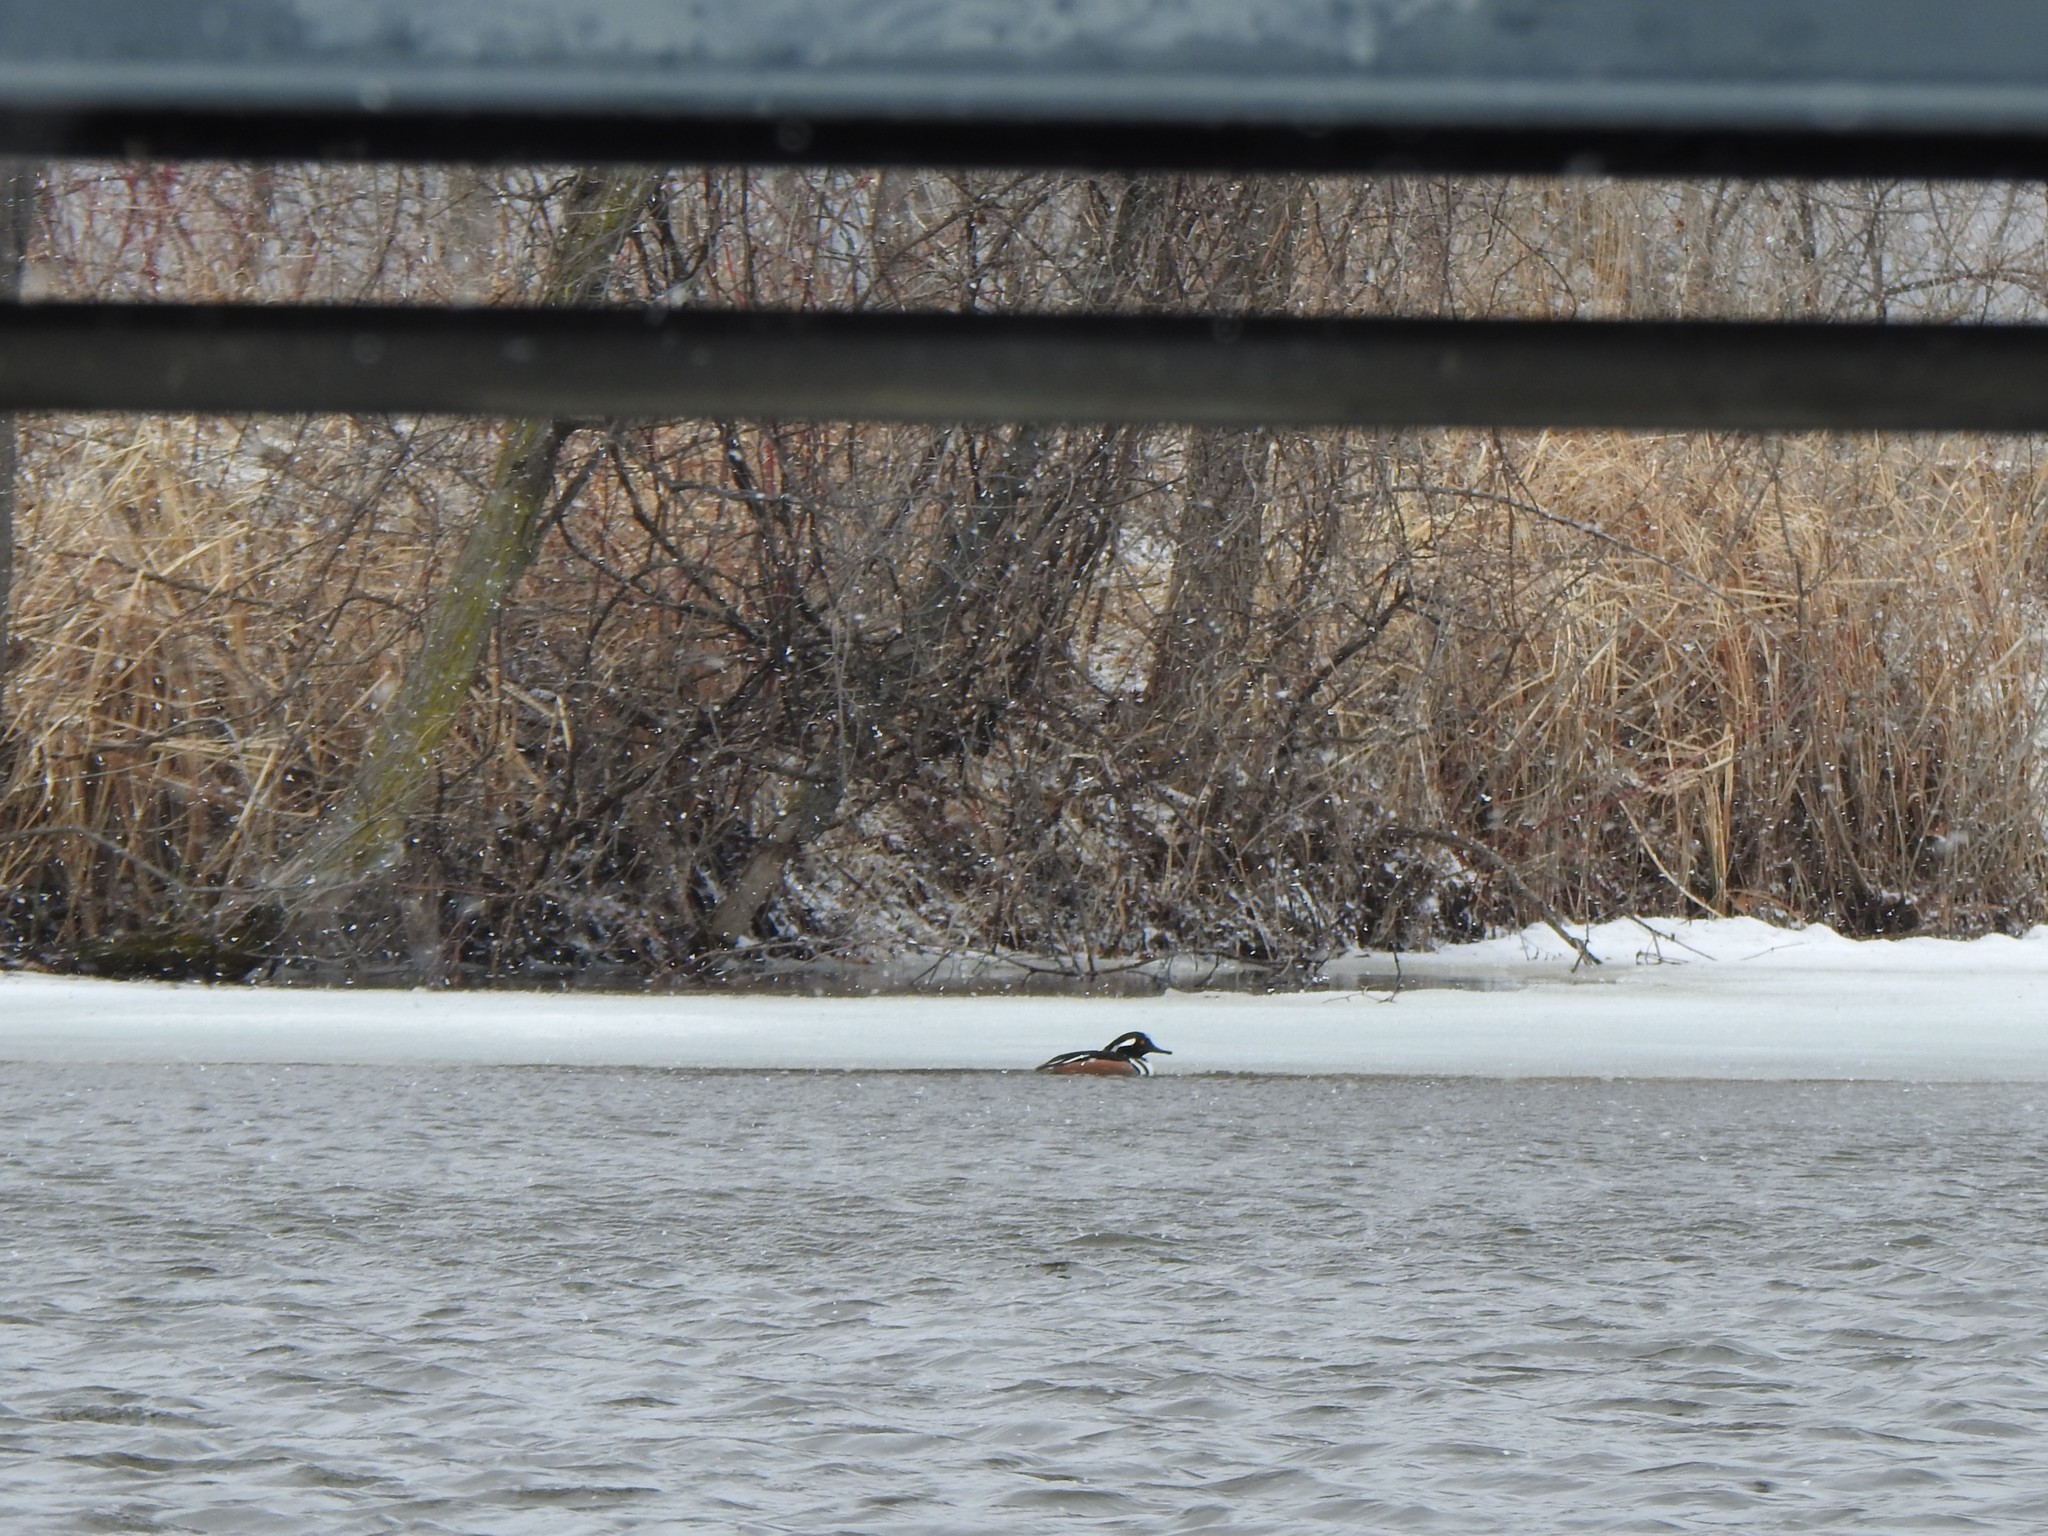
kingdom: Animalia
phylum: Chordata
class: Aves
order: Anseriformes
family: Anatidae
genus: Lophodytes
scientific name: Lophodytes cucullatus
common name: Hooded merganser
